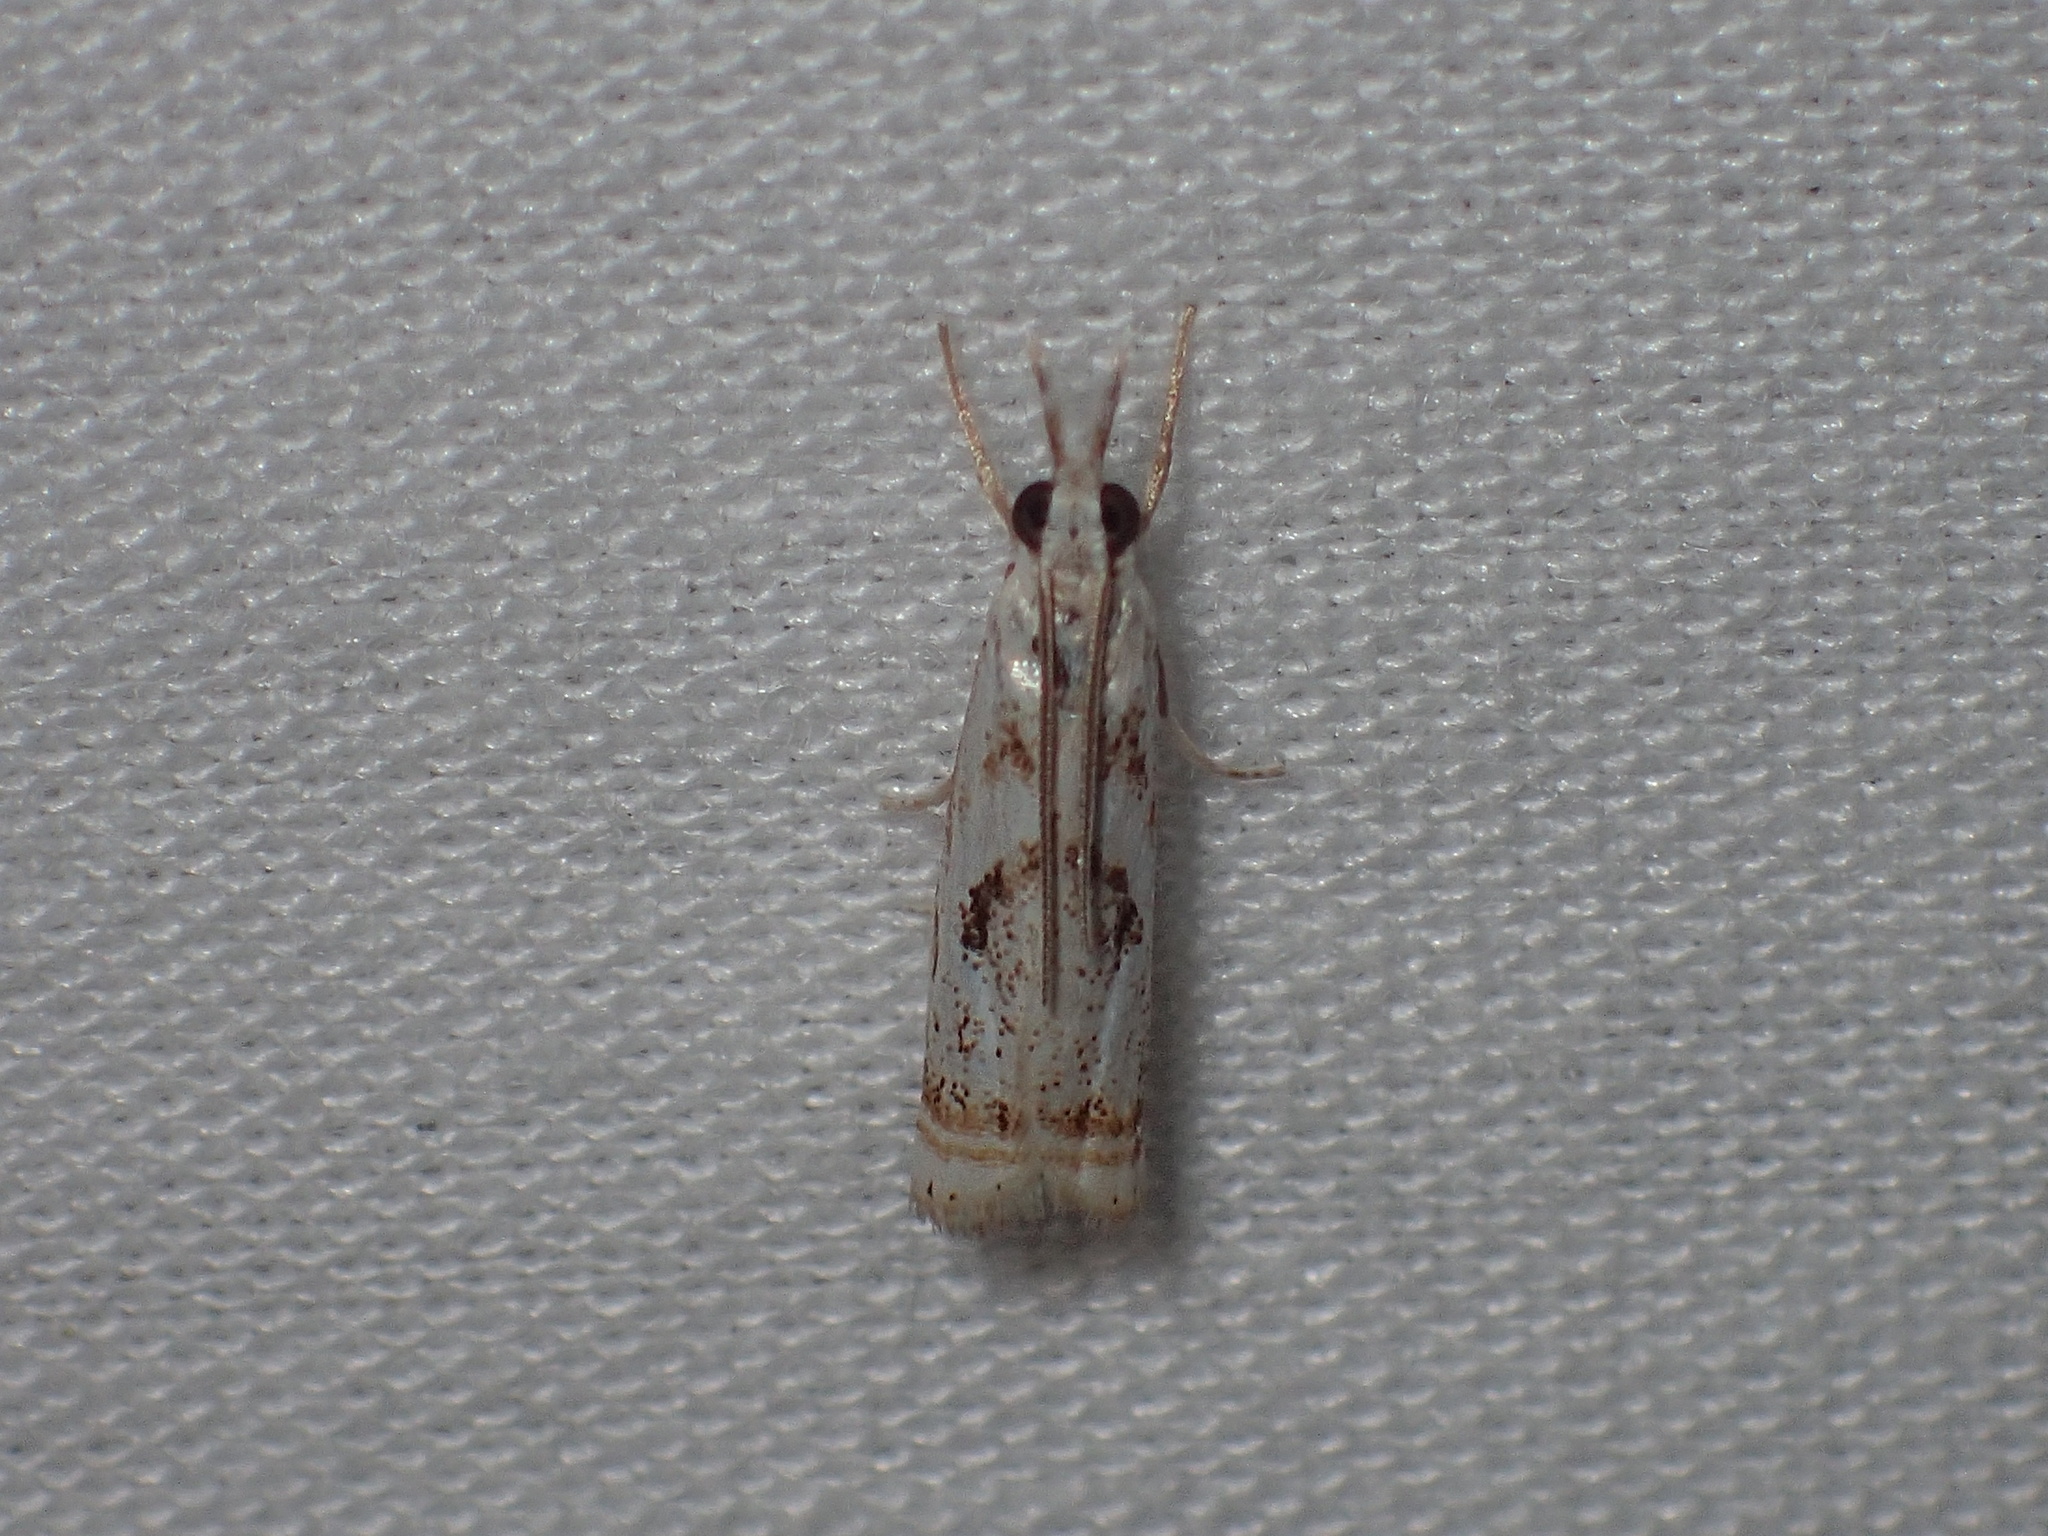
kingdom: Animalia
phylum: Arthropoda
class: Insecta
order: Lepidoptera
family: Crambidae
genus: Microcrambus
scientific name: Microcrambus elegans
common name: Elegant grass-veneer
